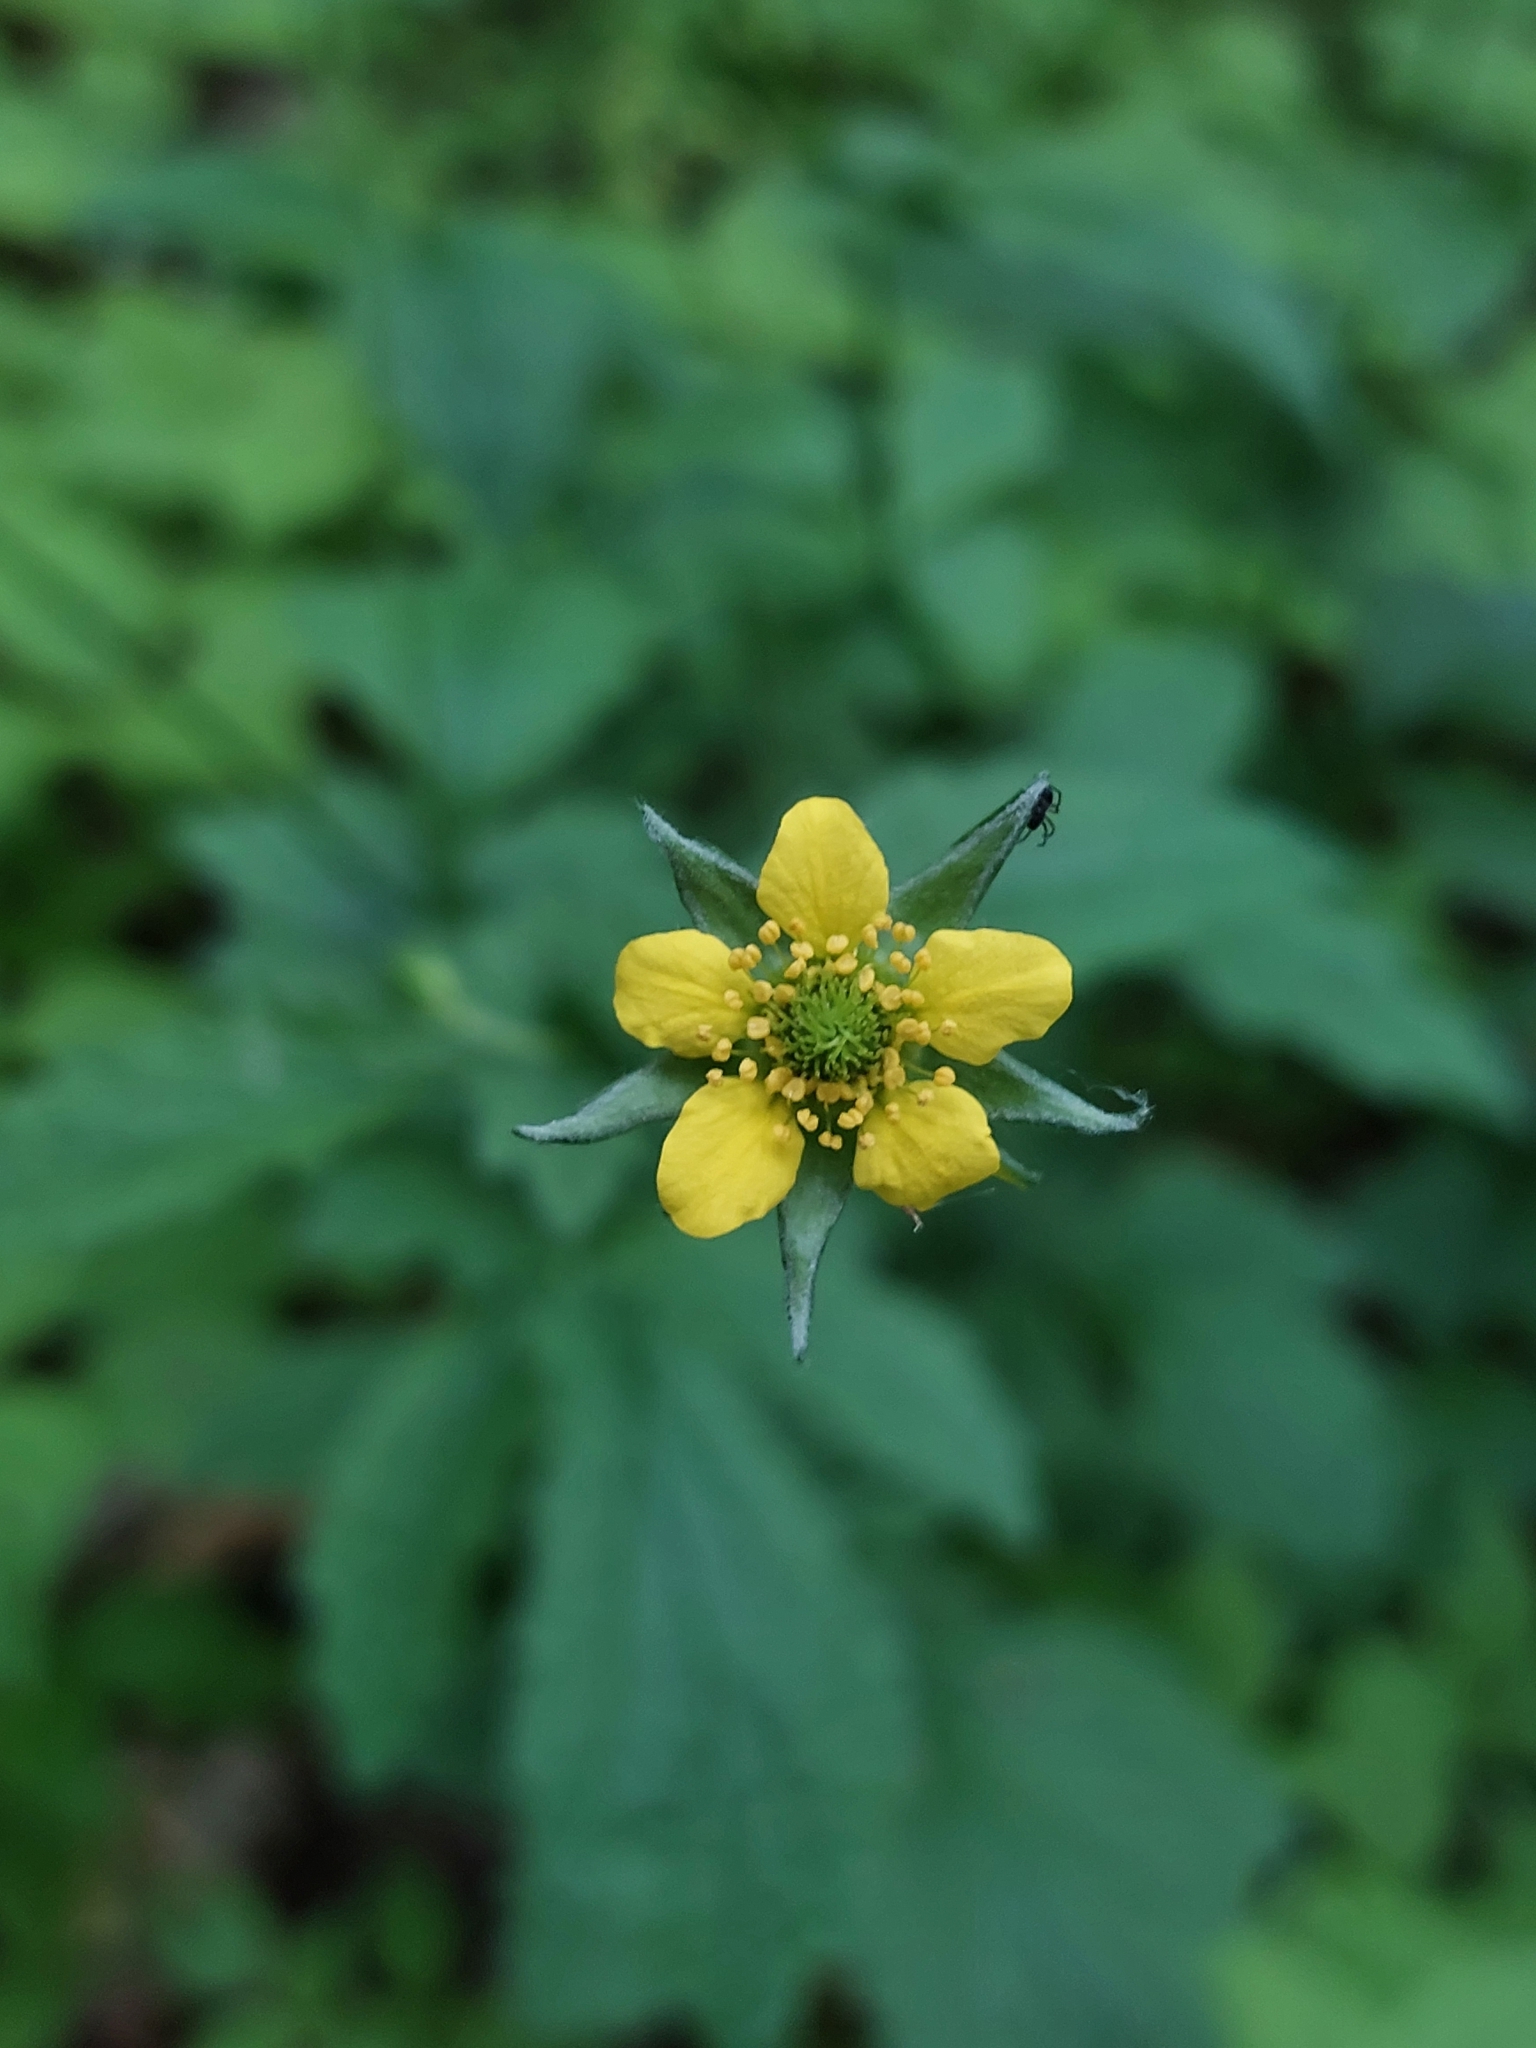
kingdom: Plantae
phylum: Tracheophyta
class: Magnoliopsida
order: Rosales
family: Rosaceae
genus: Geum
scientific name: Geum urbanum
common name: Wood avens
